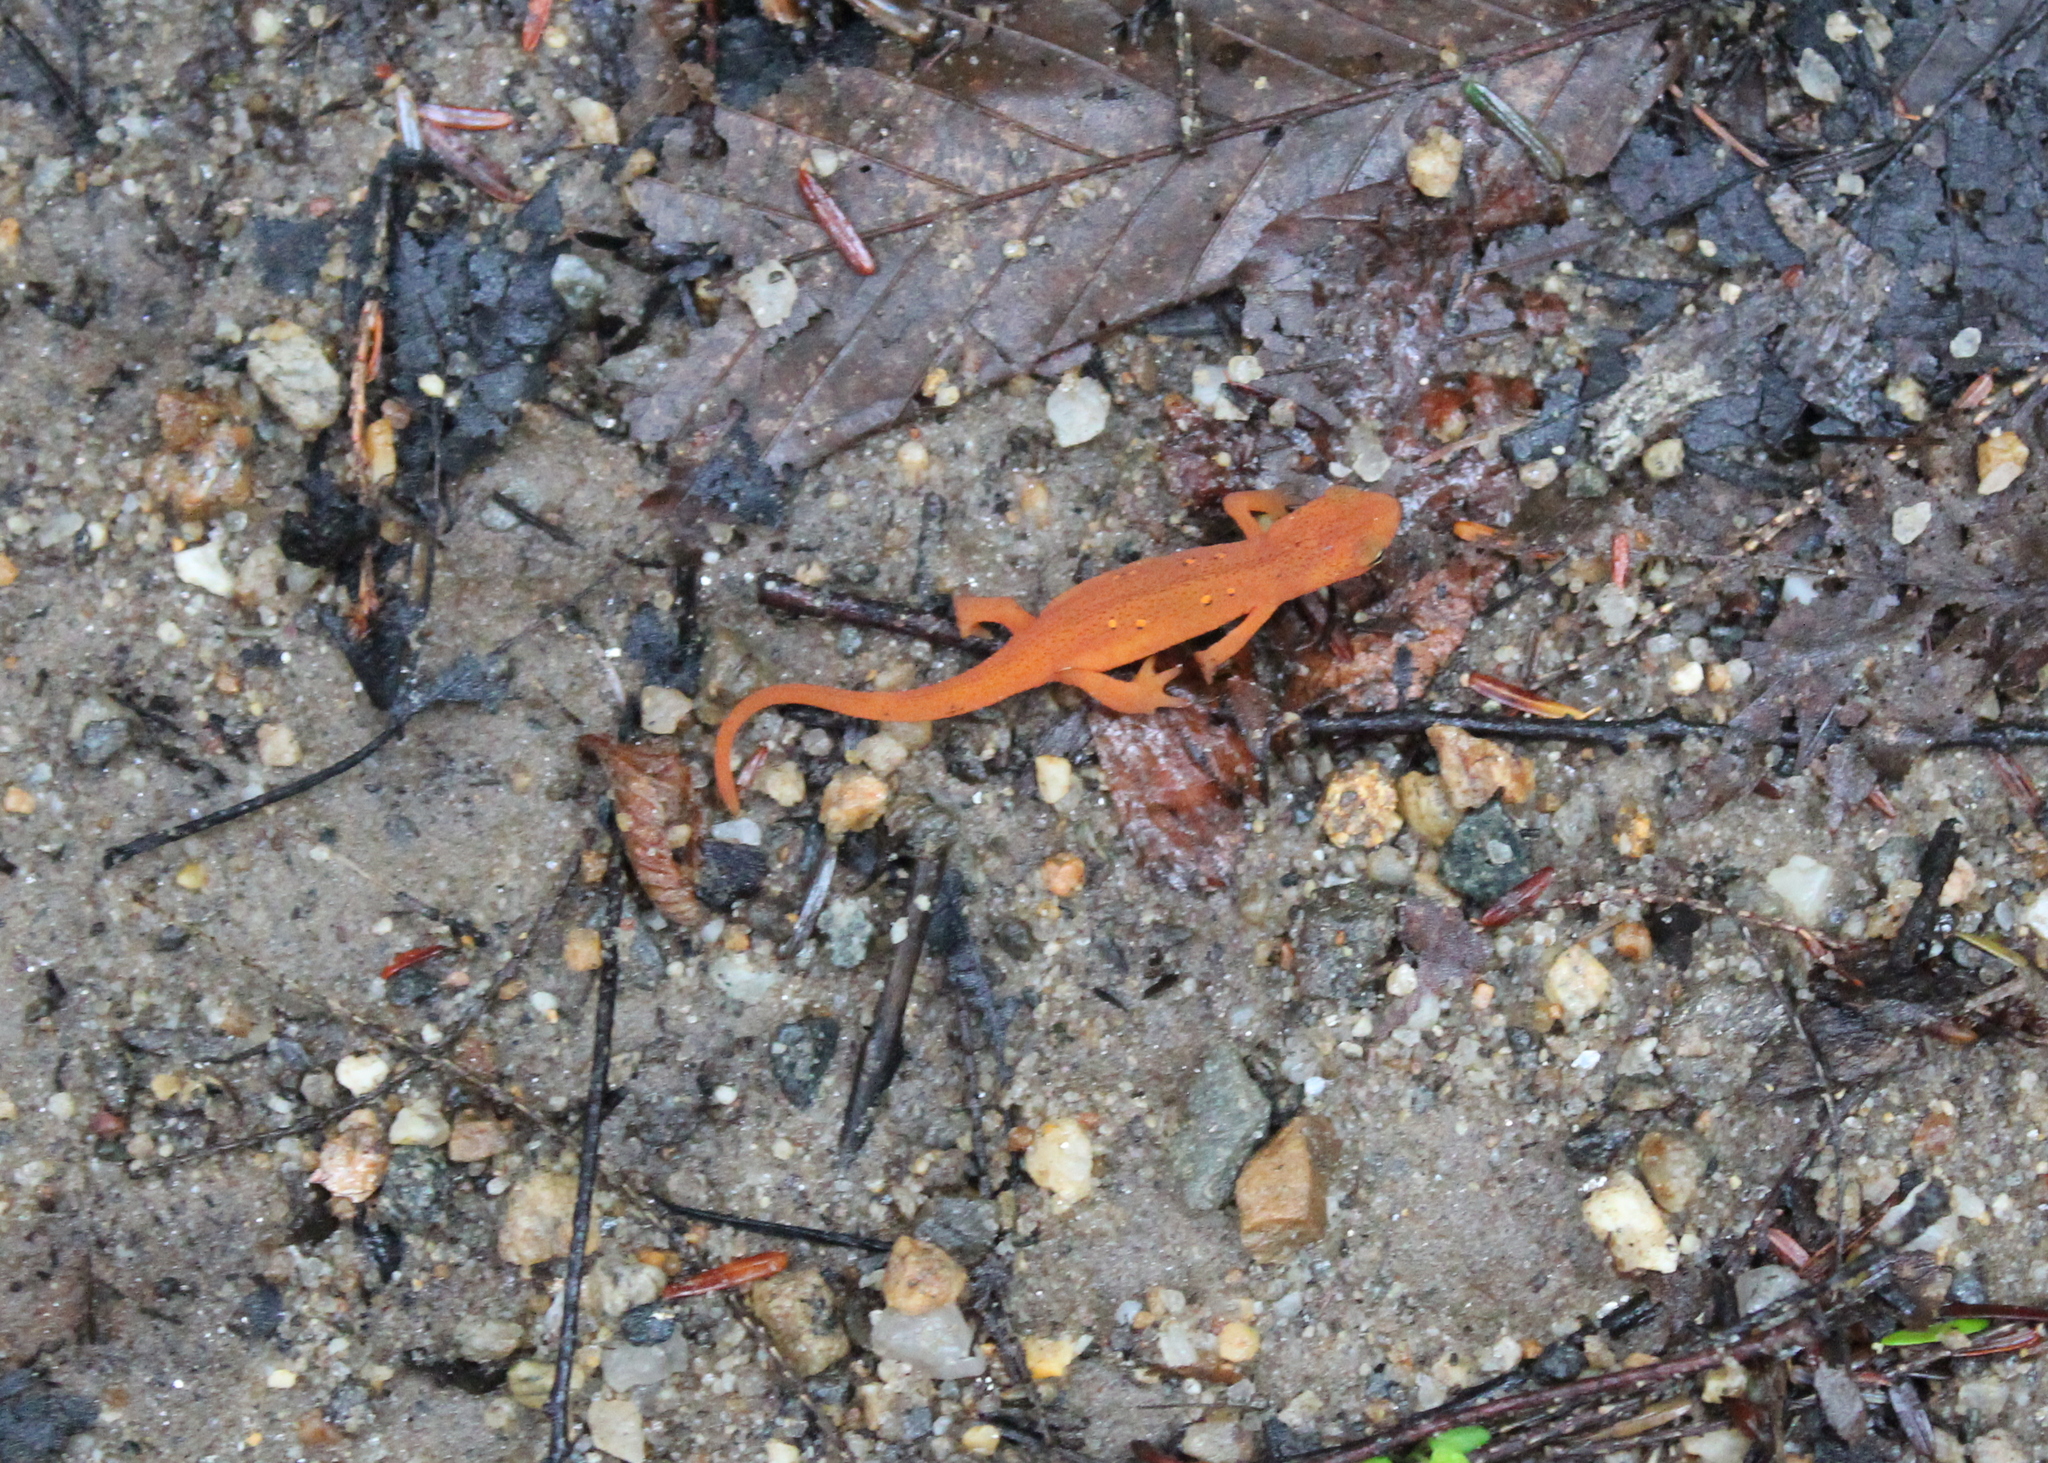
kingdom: Animalia
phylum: Chordata
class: Amphibia
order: Caudata
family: Salamandridae
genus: Notophthalmus
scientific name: Notophthalmus viridescens
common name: Eastern newt
